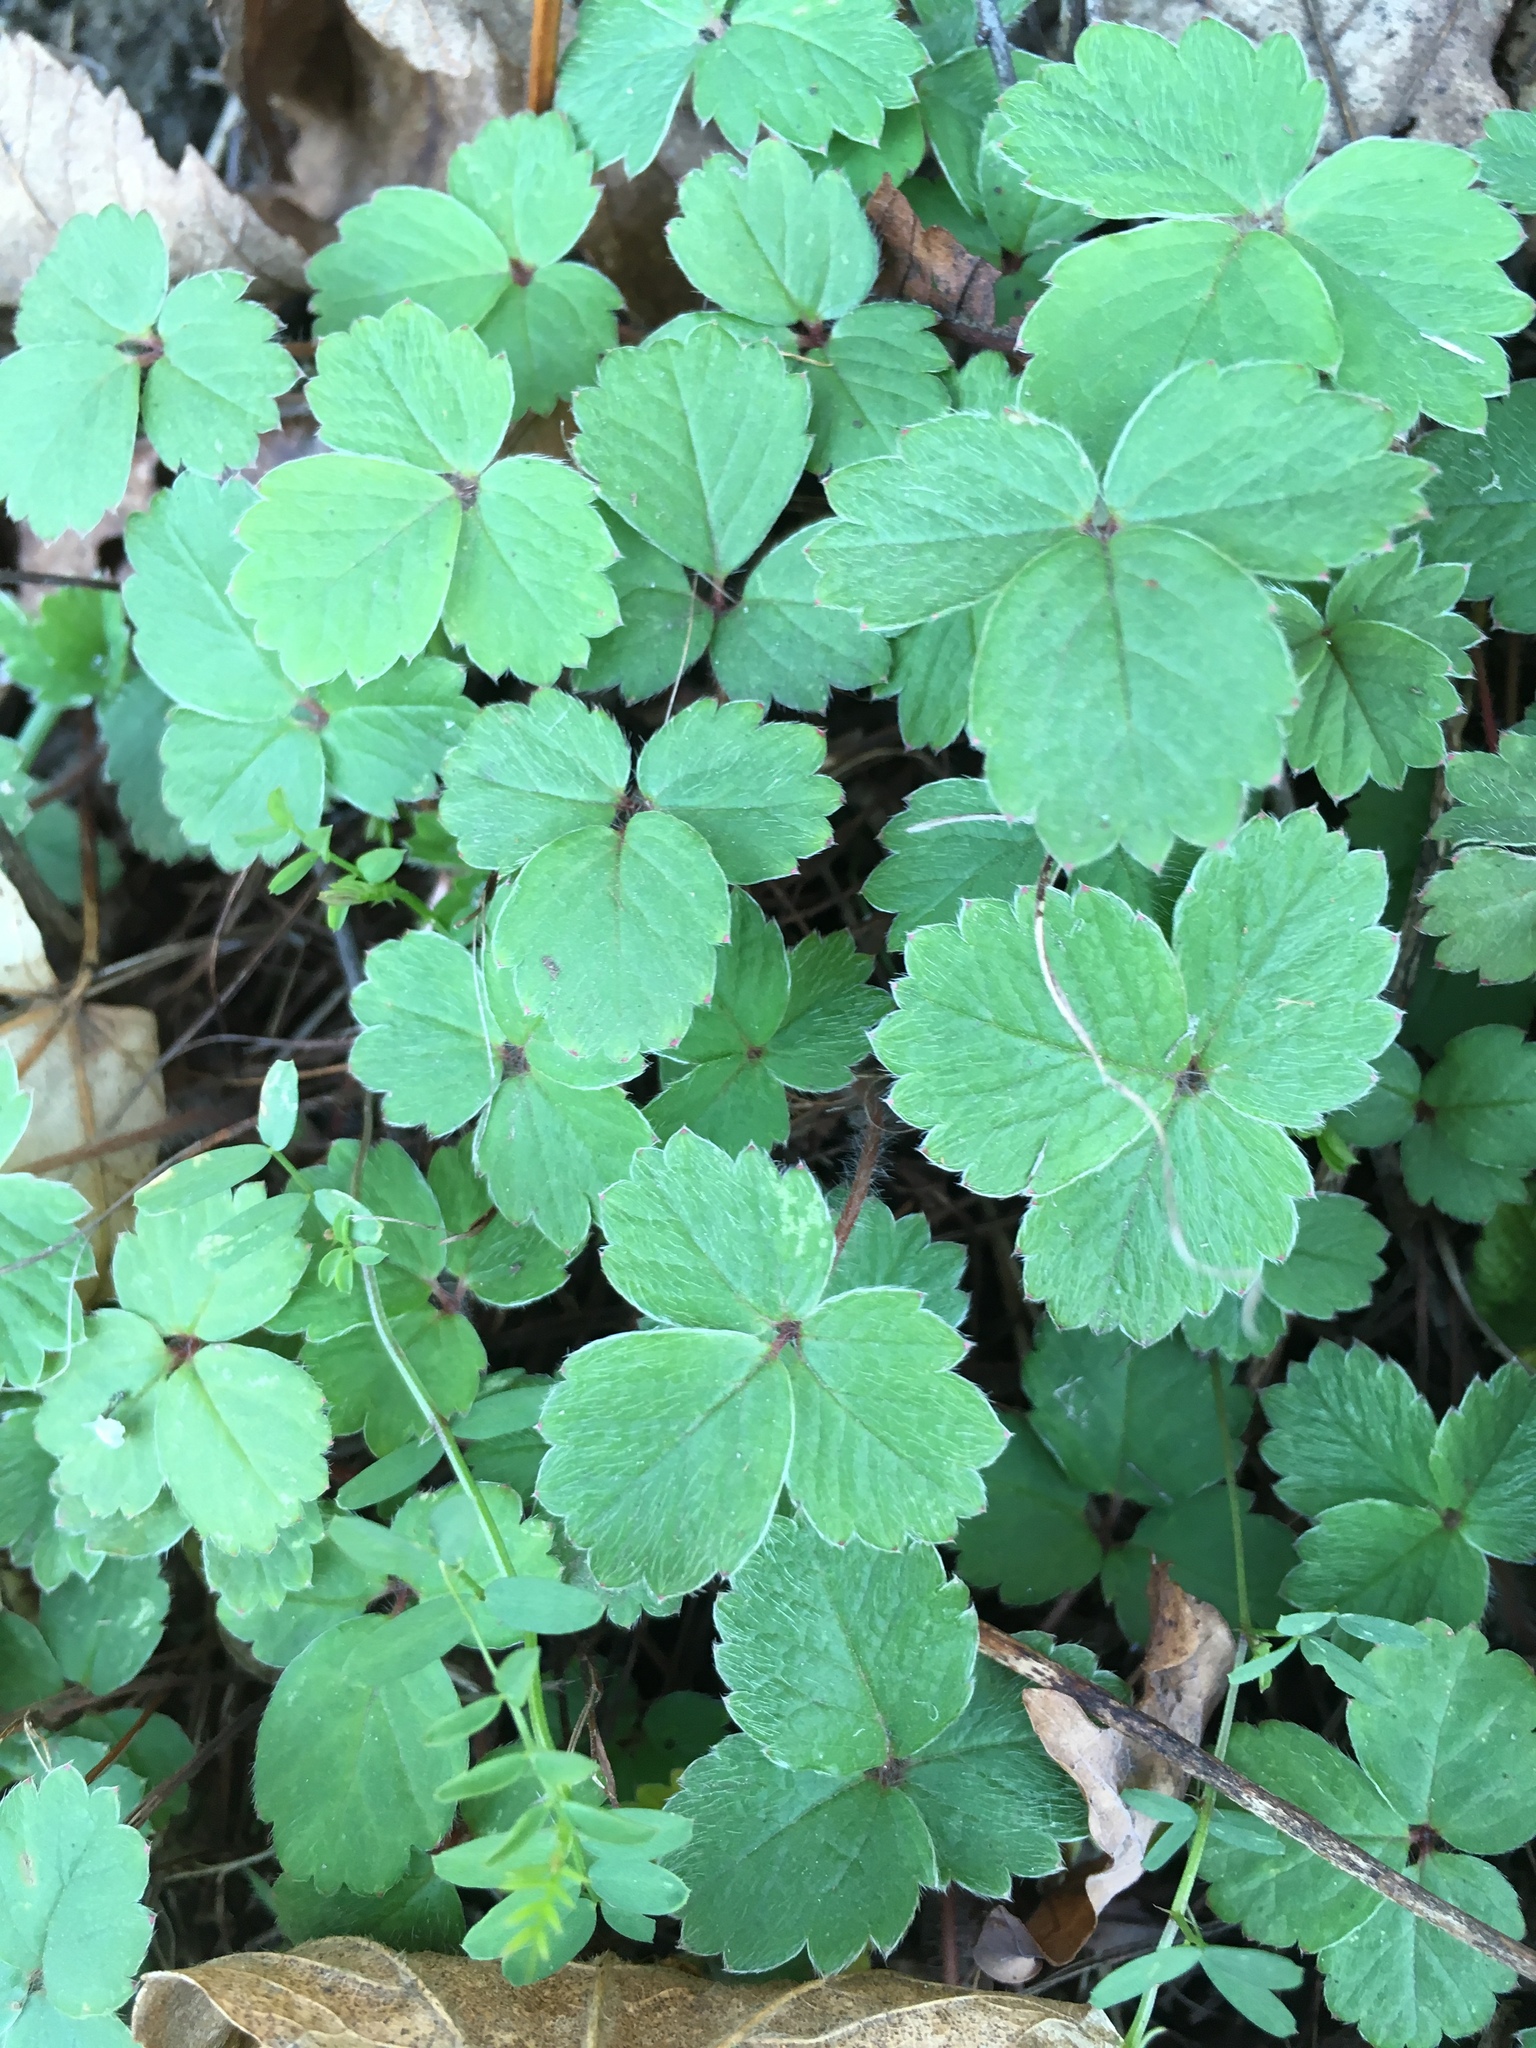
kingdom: Plantae
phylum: Tracheophyta
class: Magnoliopsida
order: Rosales
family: Rosaceae
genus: Potentilla
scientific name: Potentilla sterilis
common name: Barren strawberry
